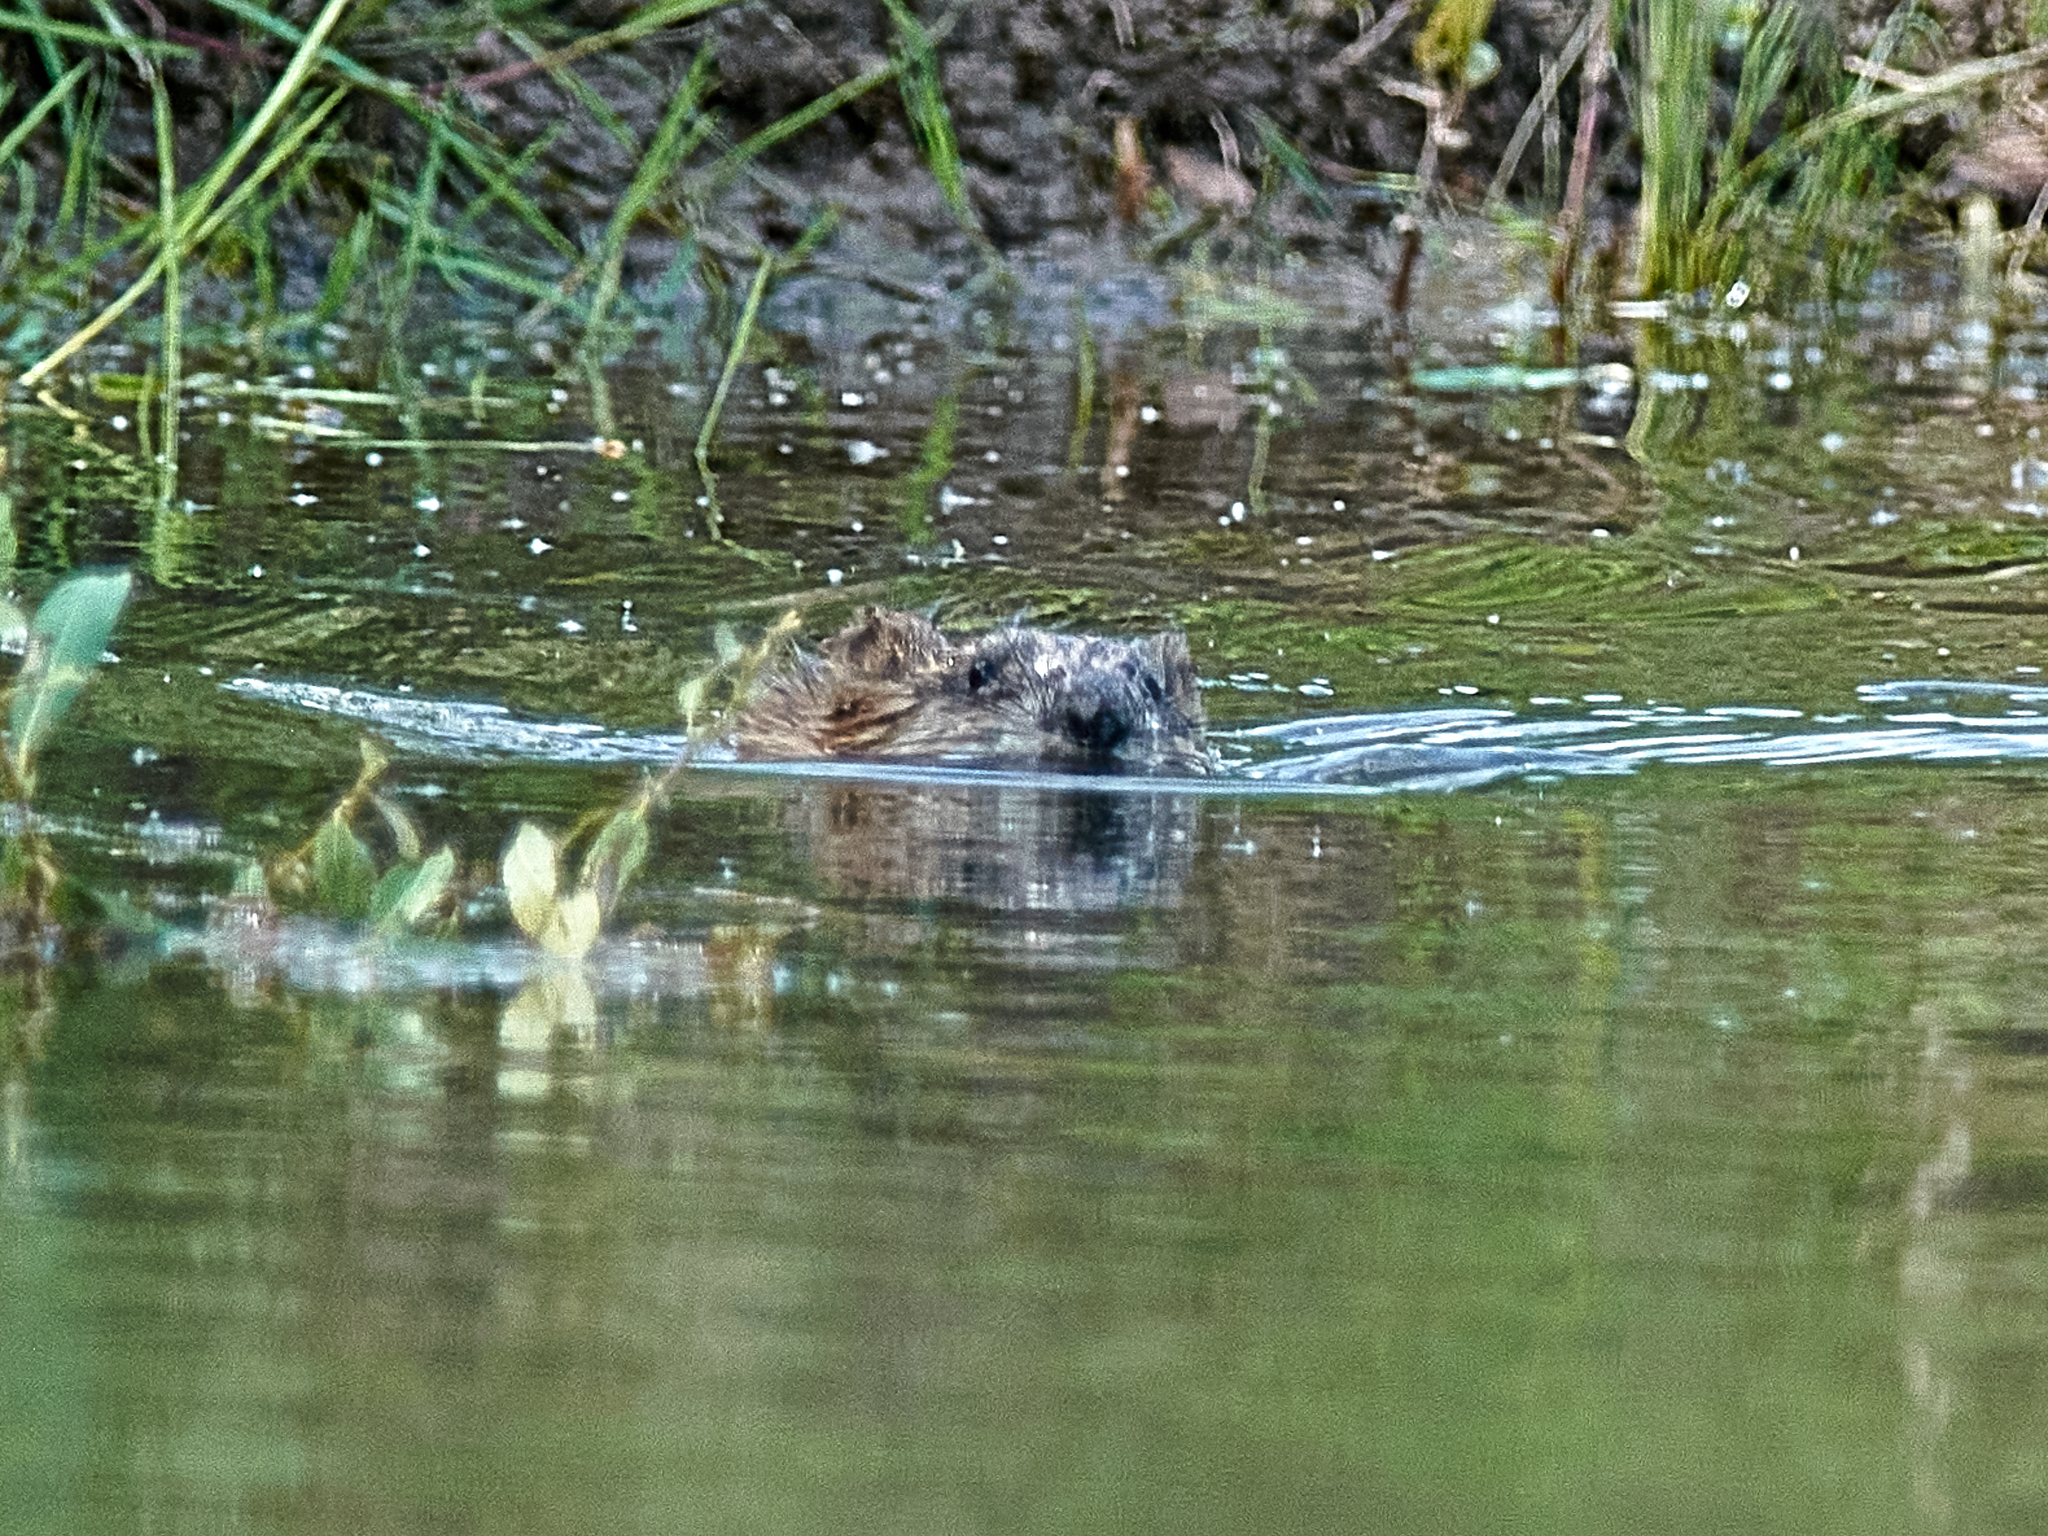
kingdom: Animalia
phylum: Chordata
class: Mammalia
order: Rodentia
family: Cricetidae
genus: Ondatra
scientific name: Ondatra zibethicus
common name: Muskrat
